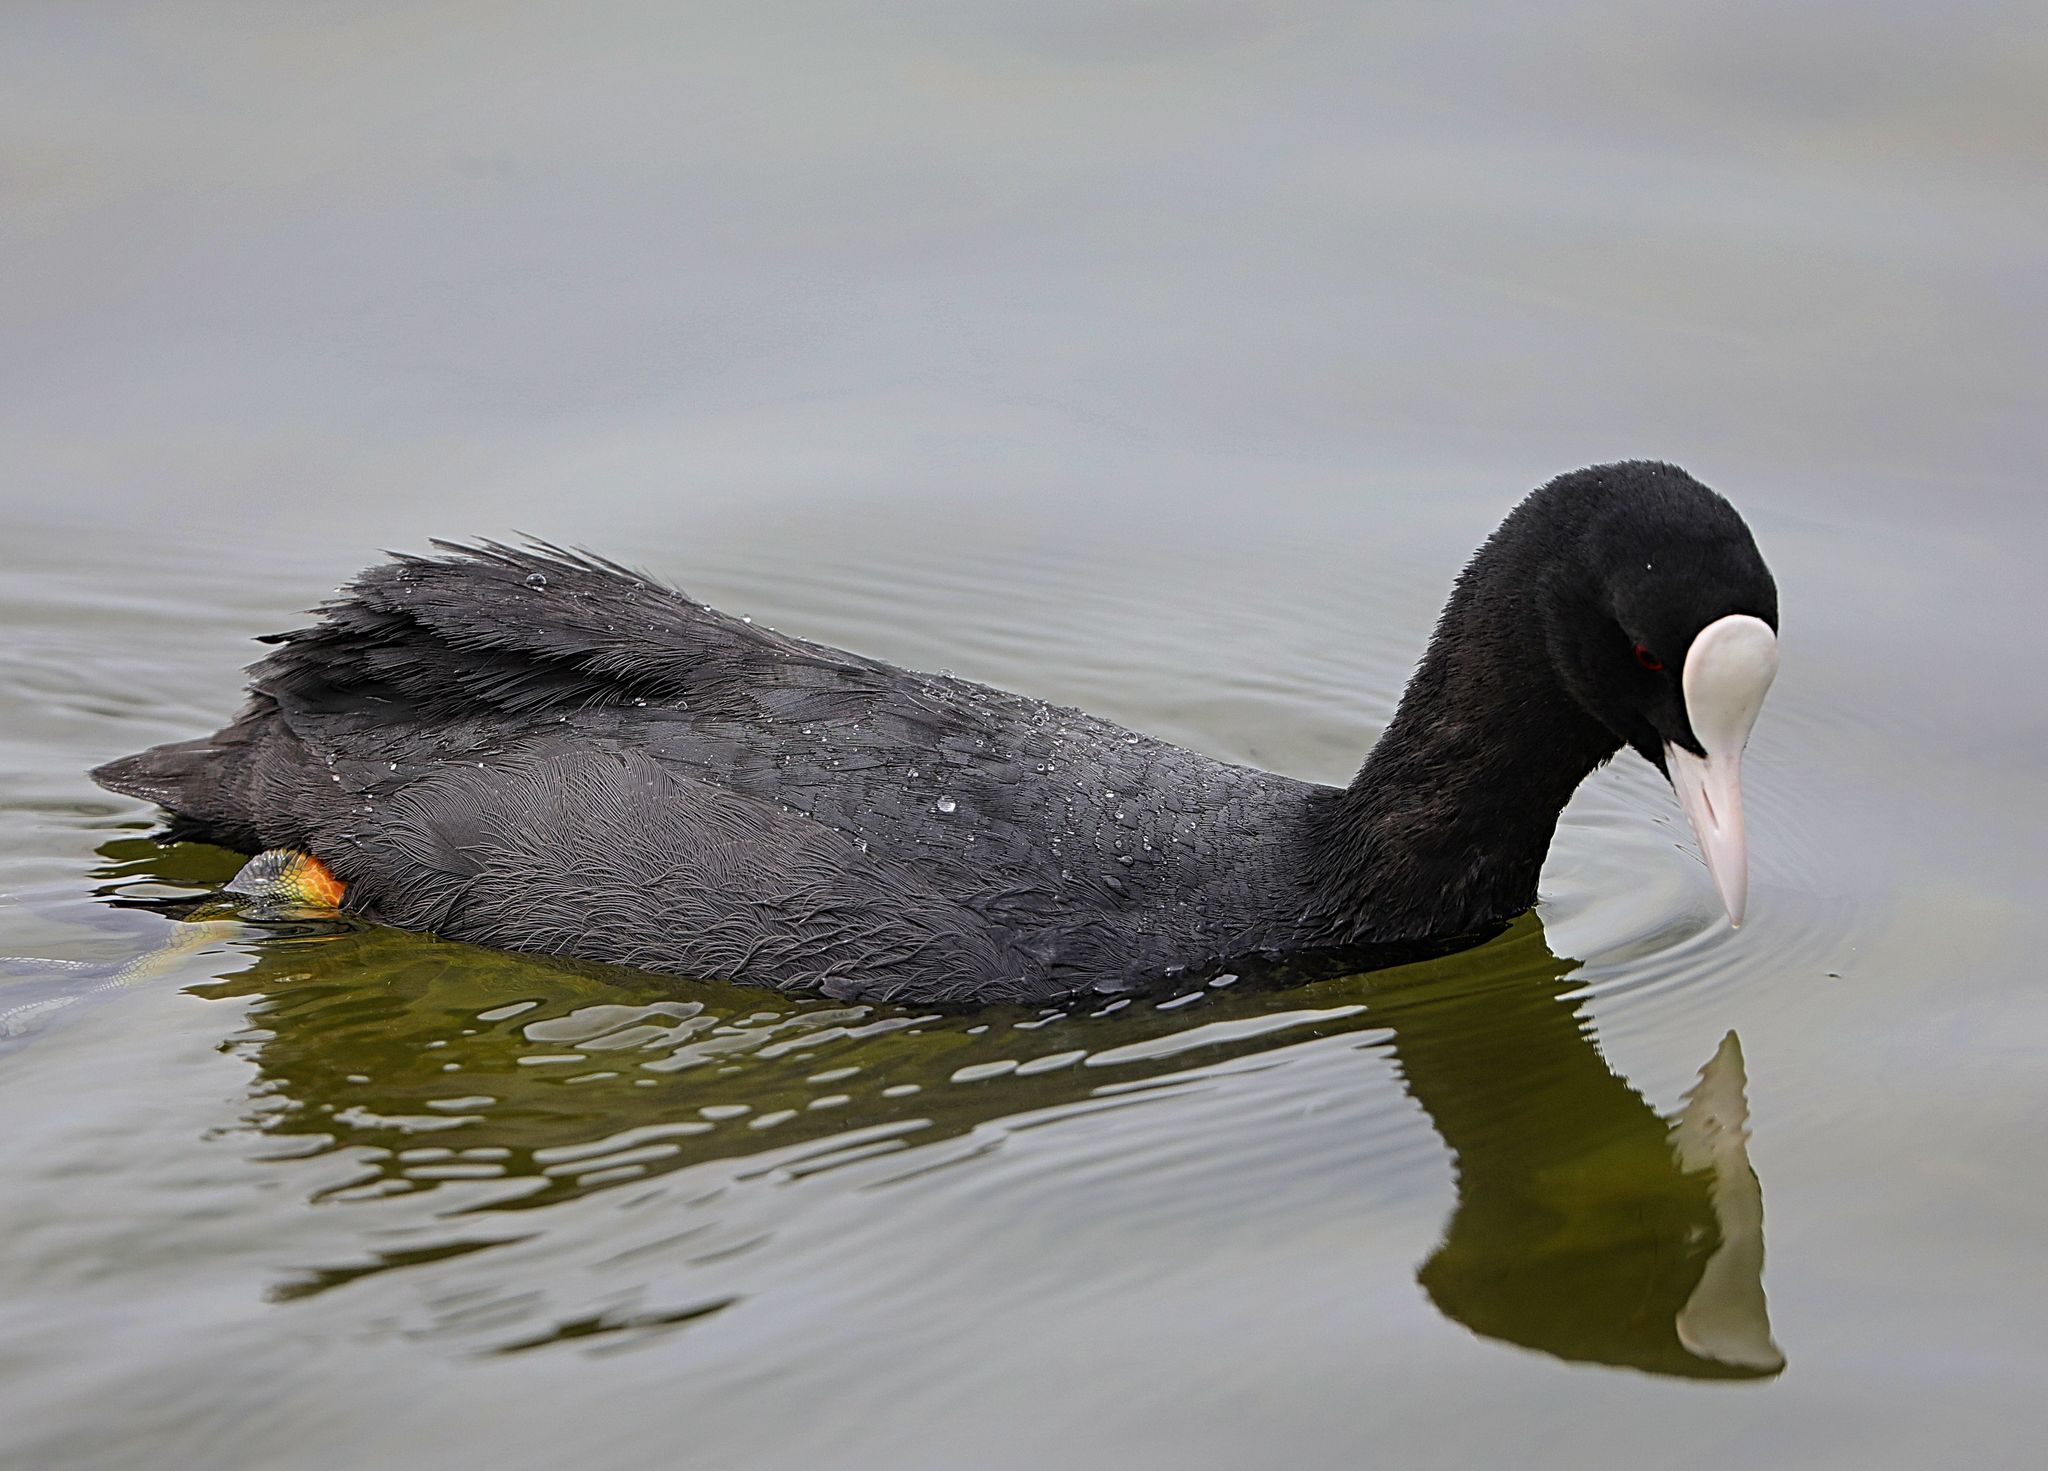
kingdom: Animalia
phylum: Chordata
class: Aves
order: Gruiformes
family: Rallidae
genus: Fulica
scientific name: Fulica atra
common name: Eurasian coot
